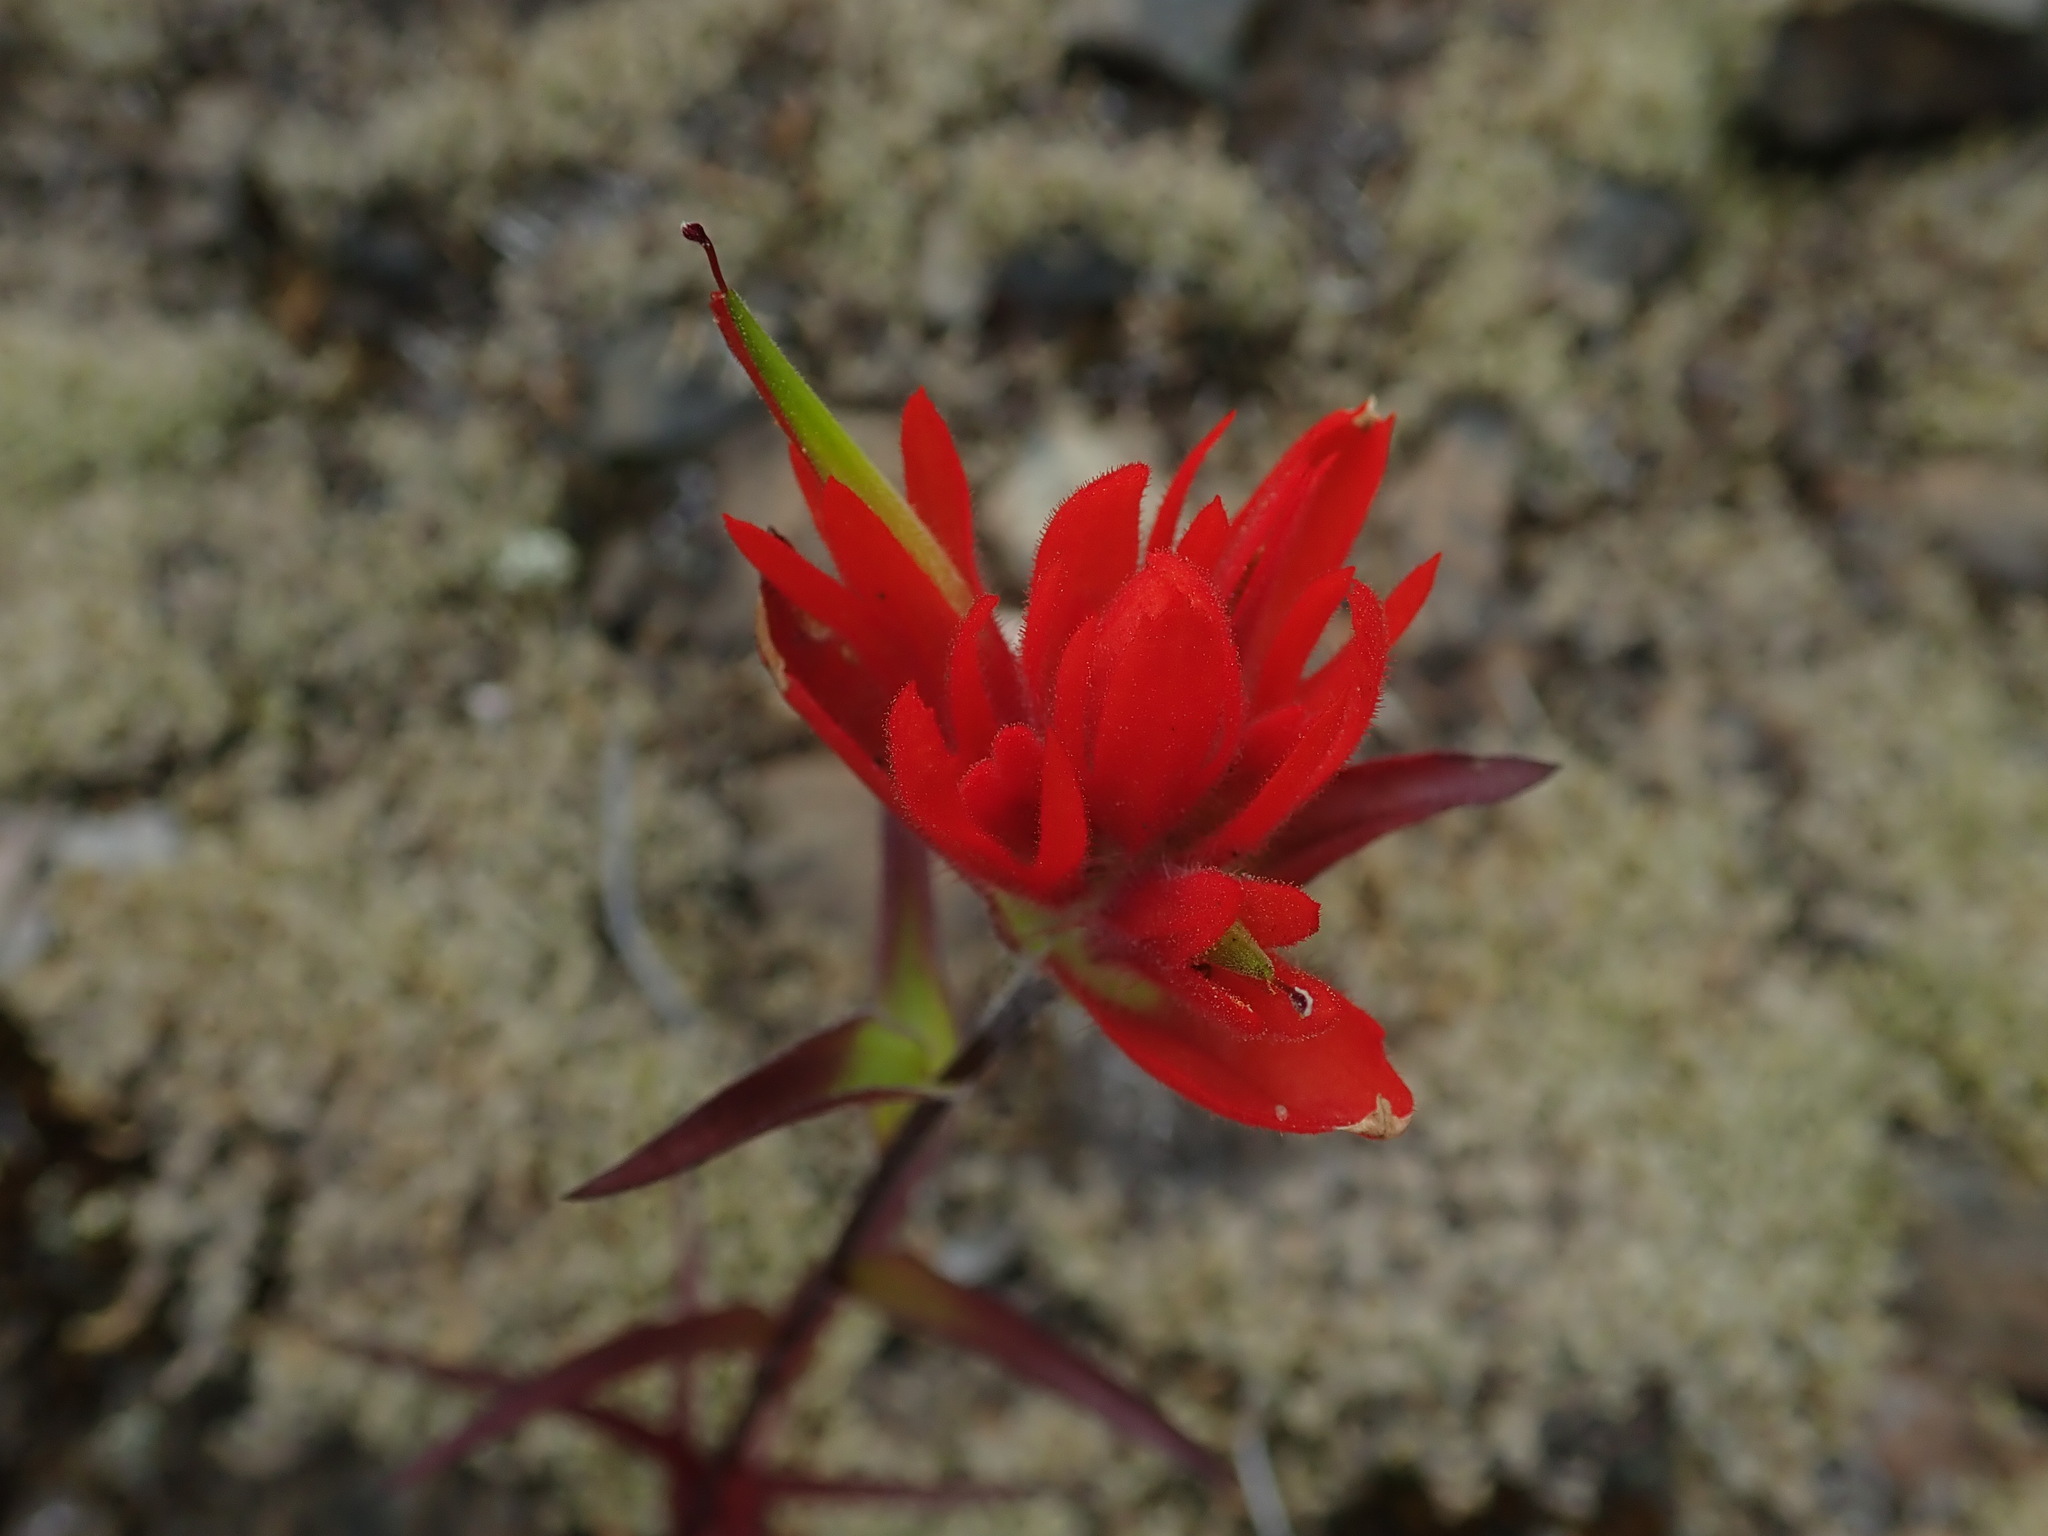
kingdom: Plantae
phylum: Tracheophyta
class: Magnoliopsida
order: Lamiales
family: Orobanchaceae
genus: Castilleja
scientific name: Castilleja miniata
